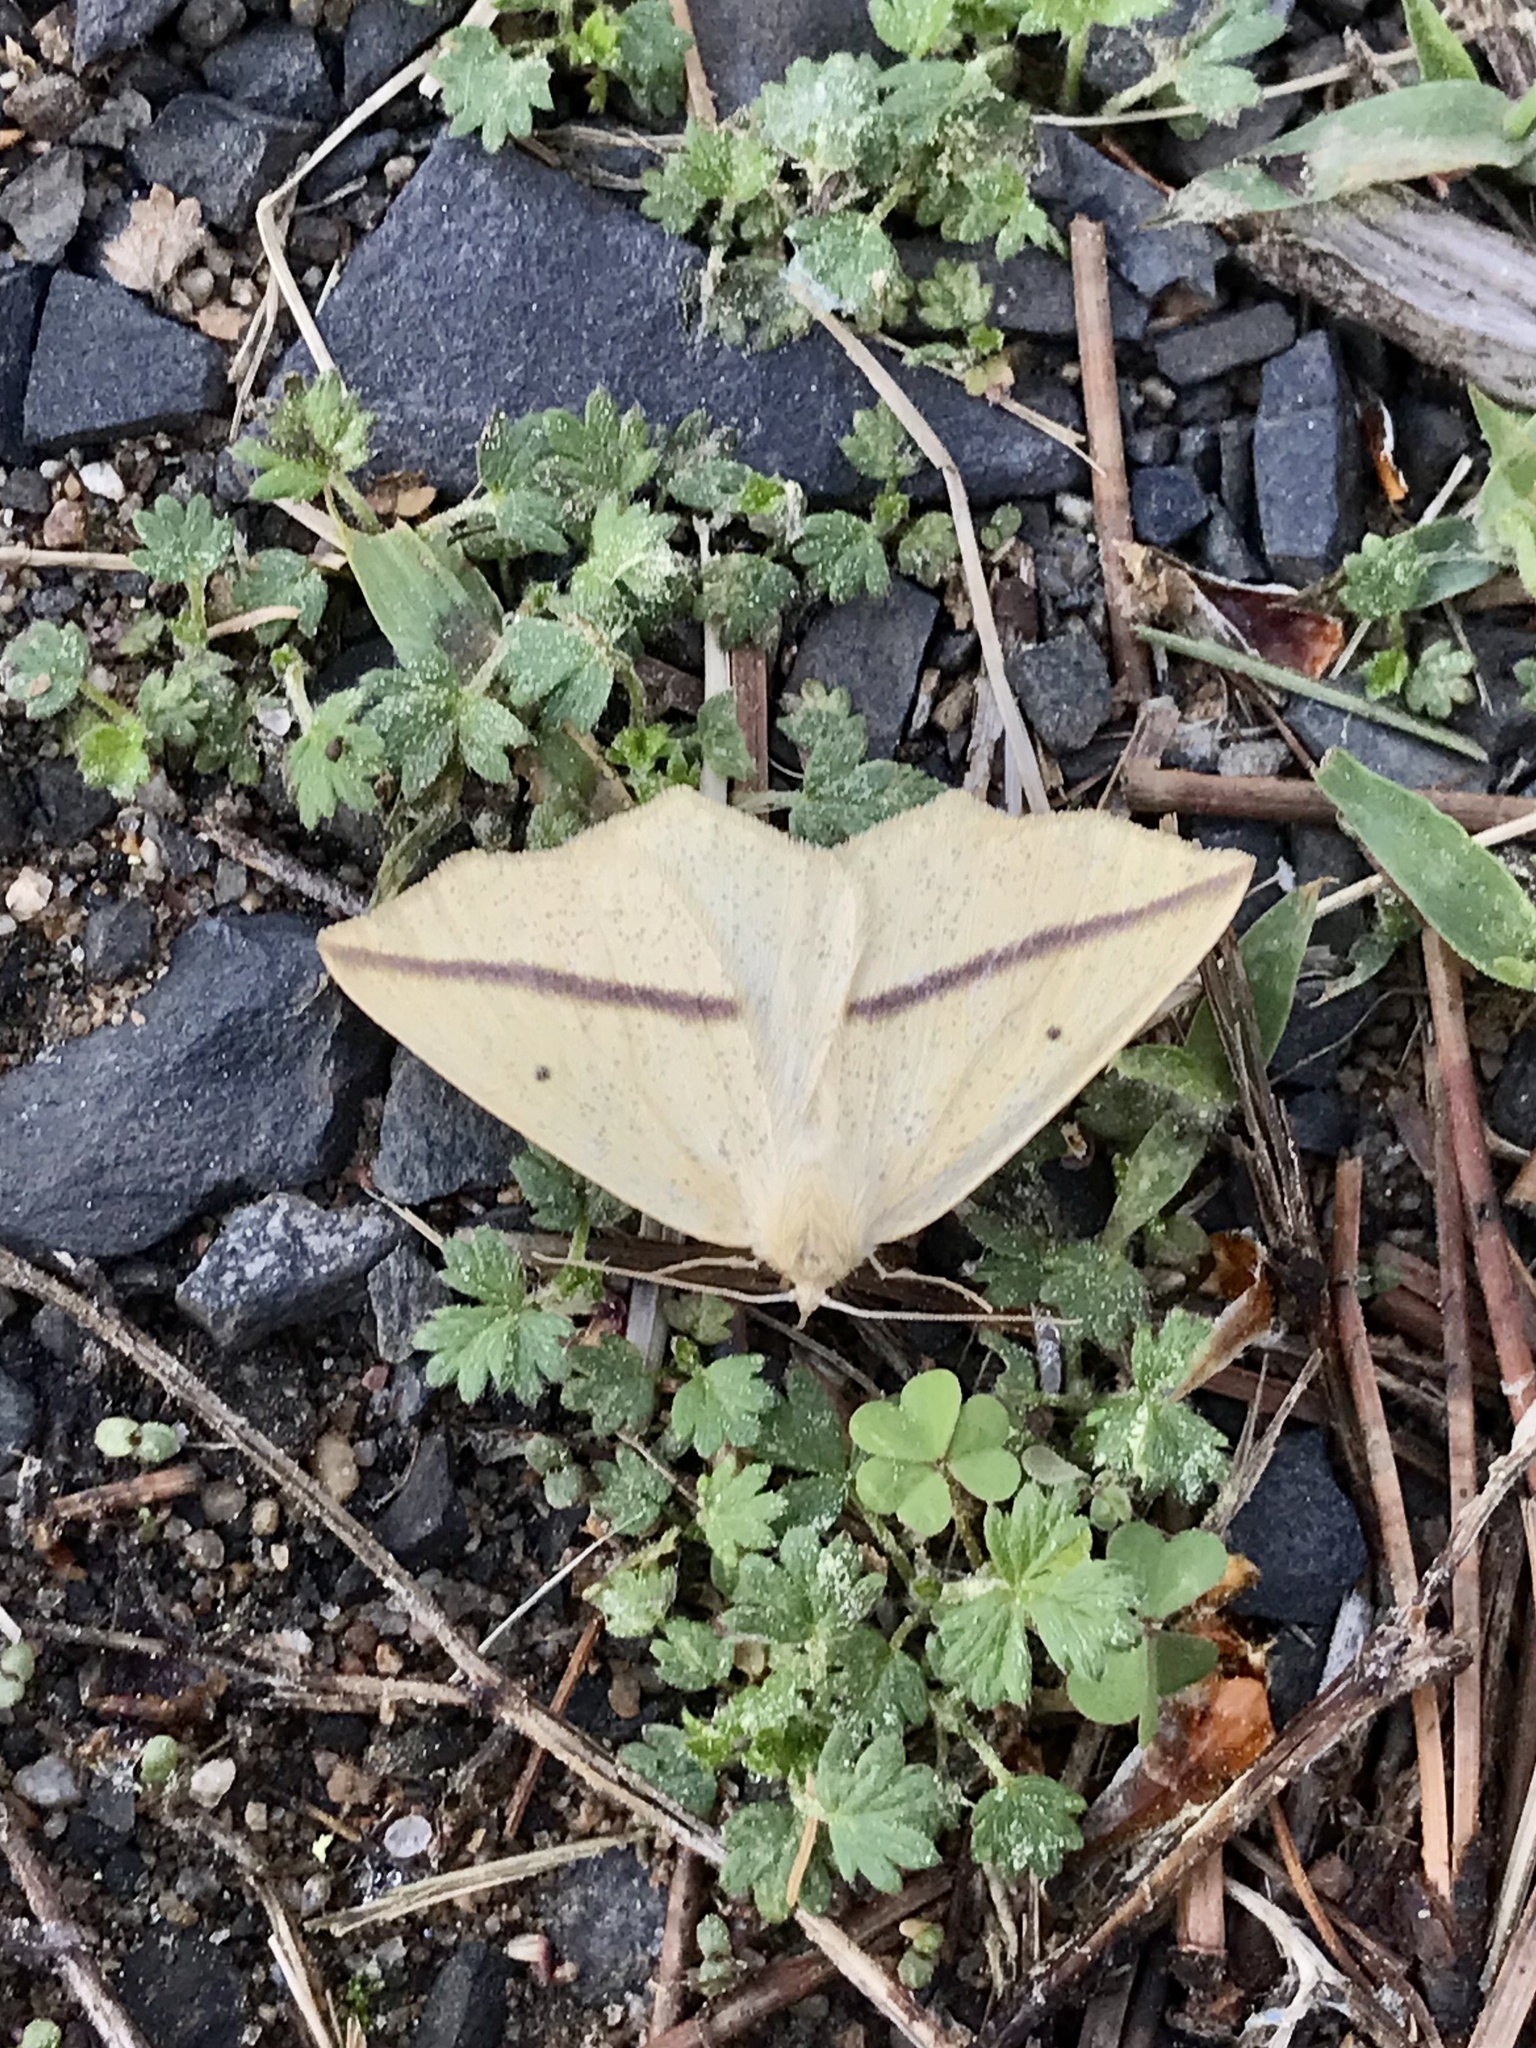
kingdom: Animalia
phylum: Arthropoda
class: Insecta
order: Lepidoptera
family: Geometridae
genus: Tetracis
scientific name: Tetracis crocallata
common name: Yellow slant-line
